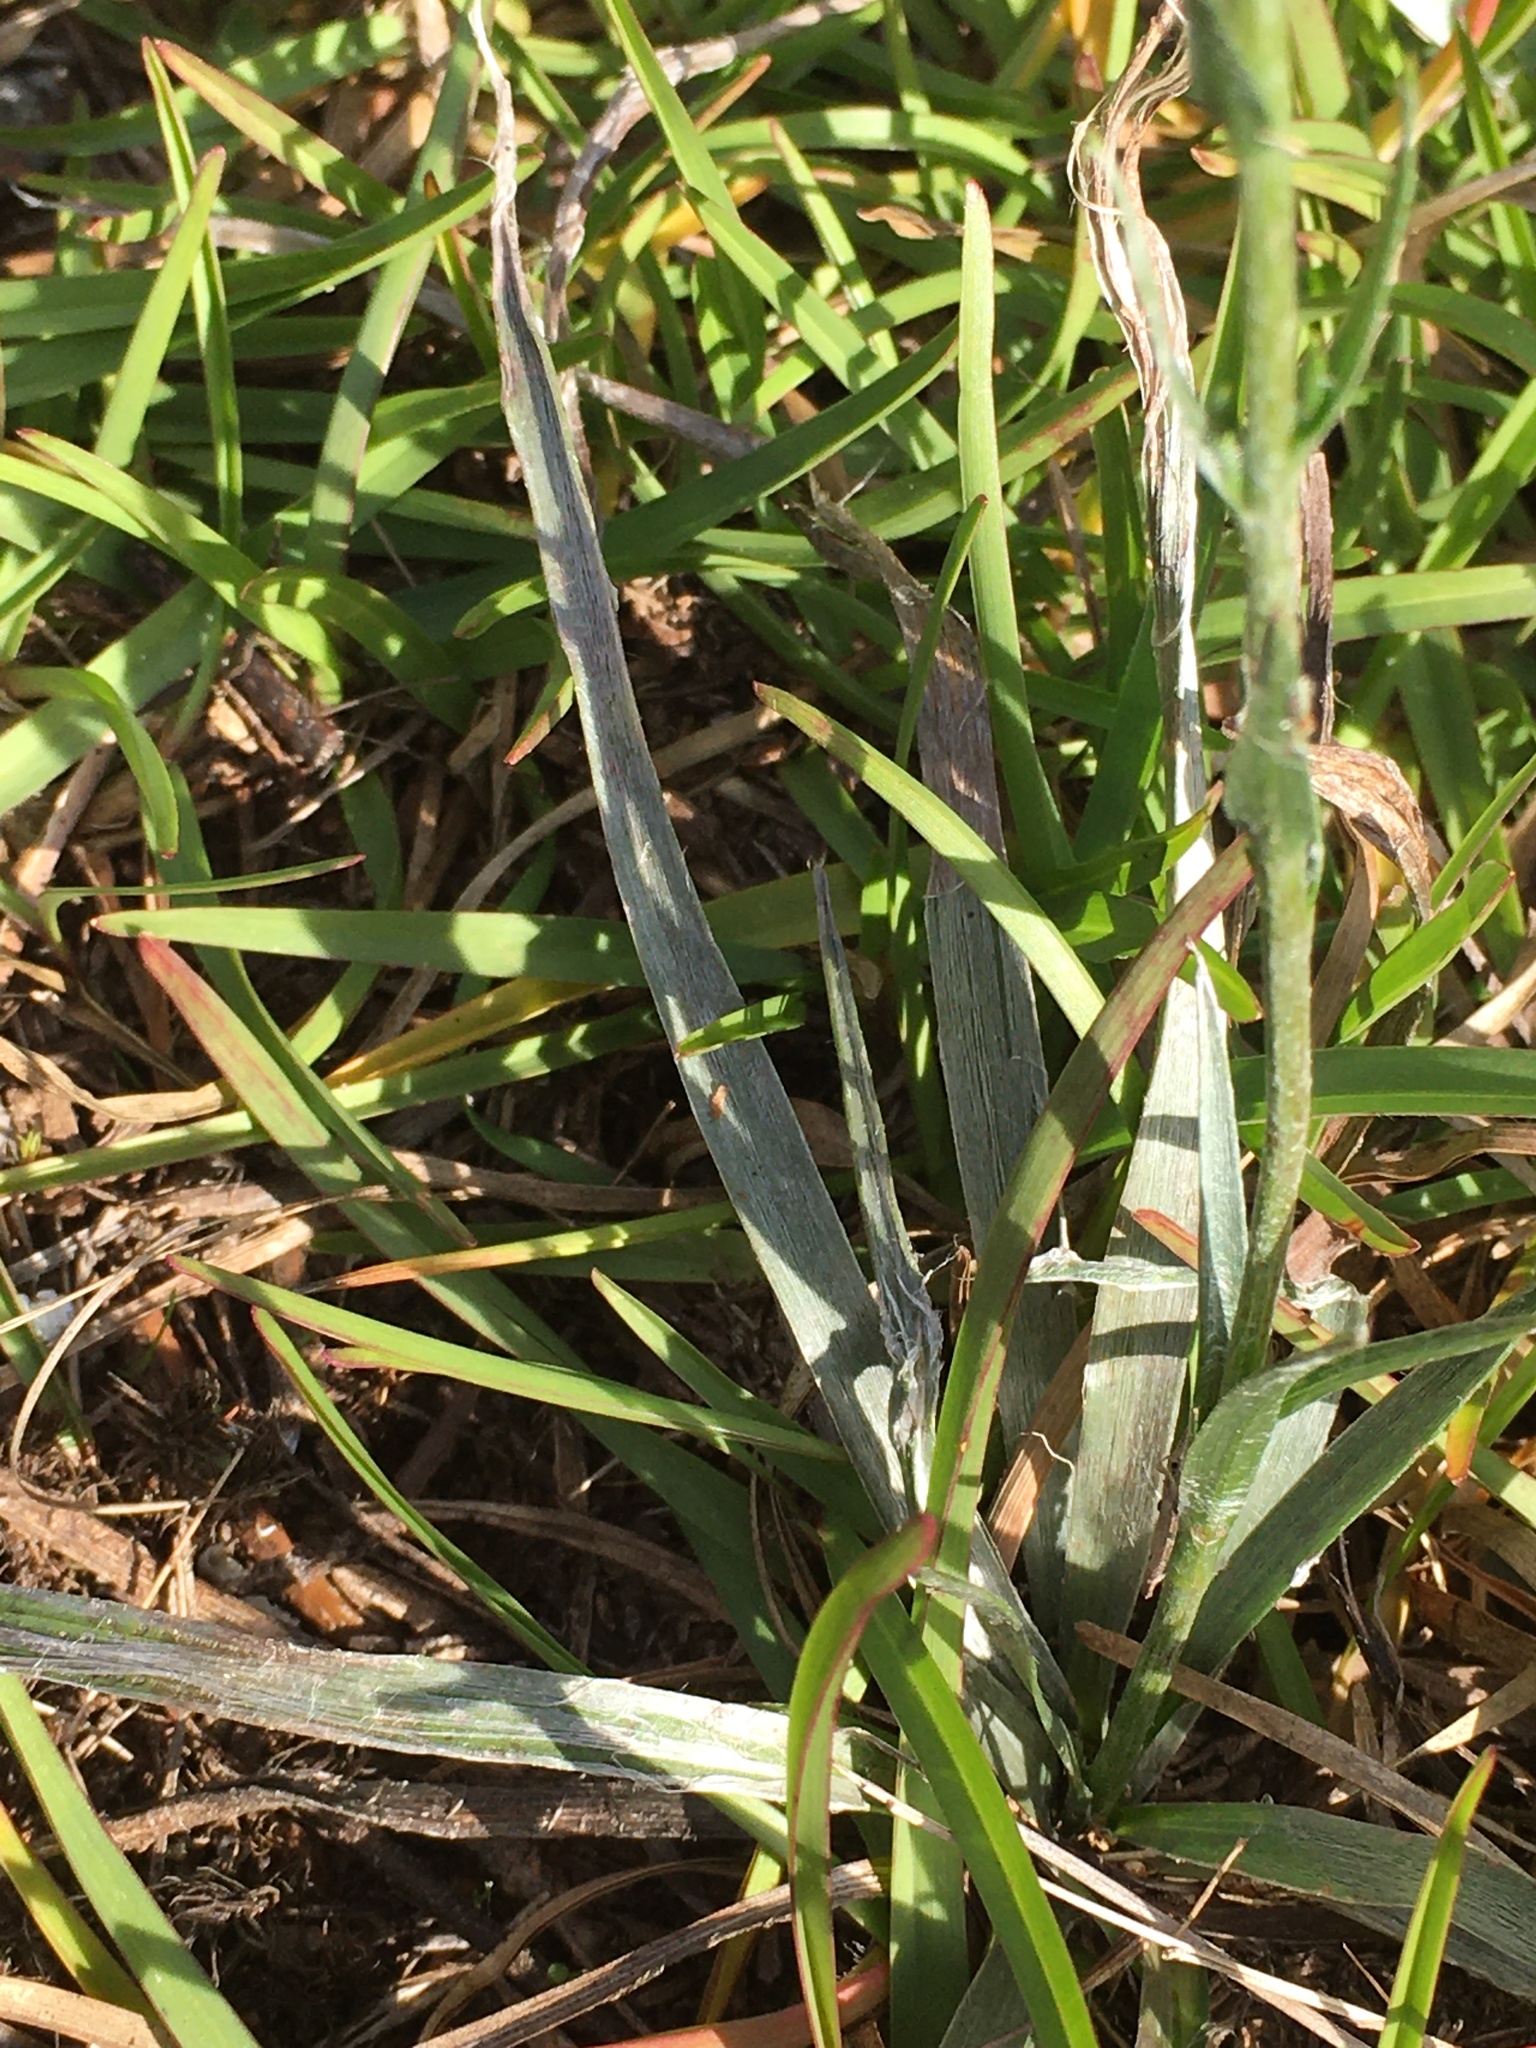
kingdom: Plantae
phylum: Tracheophyta
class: Magnoliopsida
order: Asterales
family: Asteraceae
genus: Pityopsis
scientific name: Pityopsis aspera
